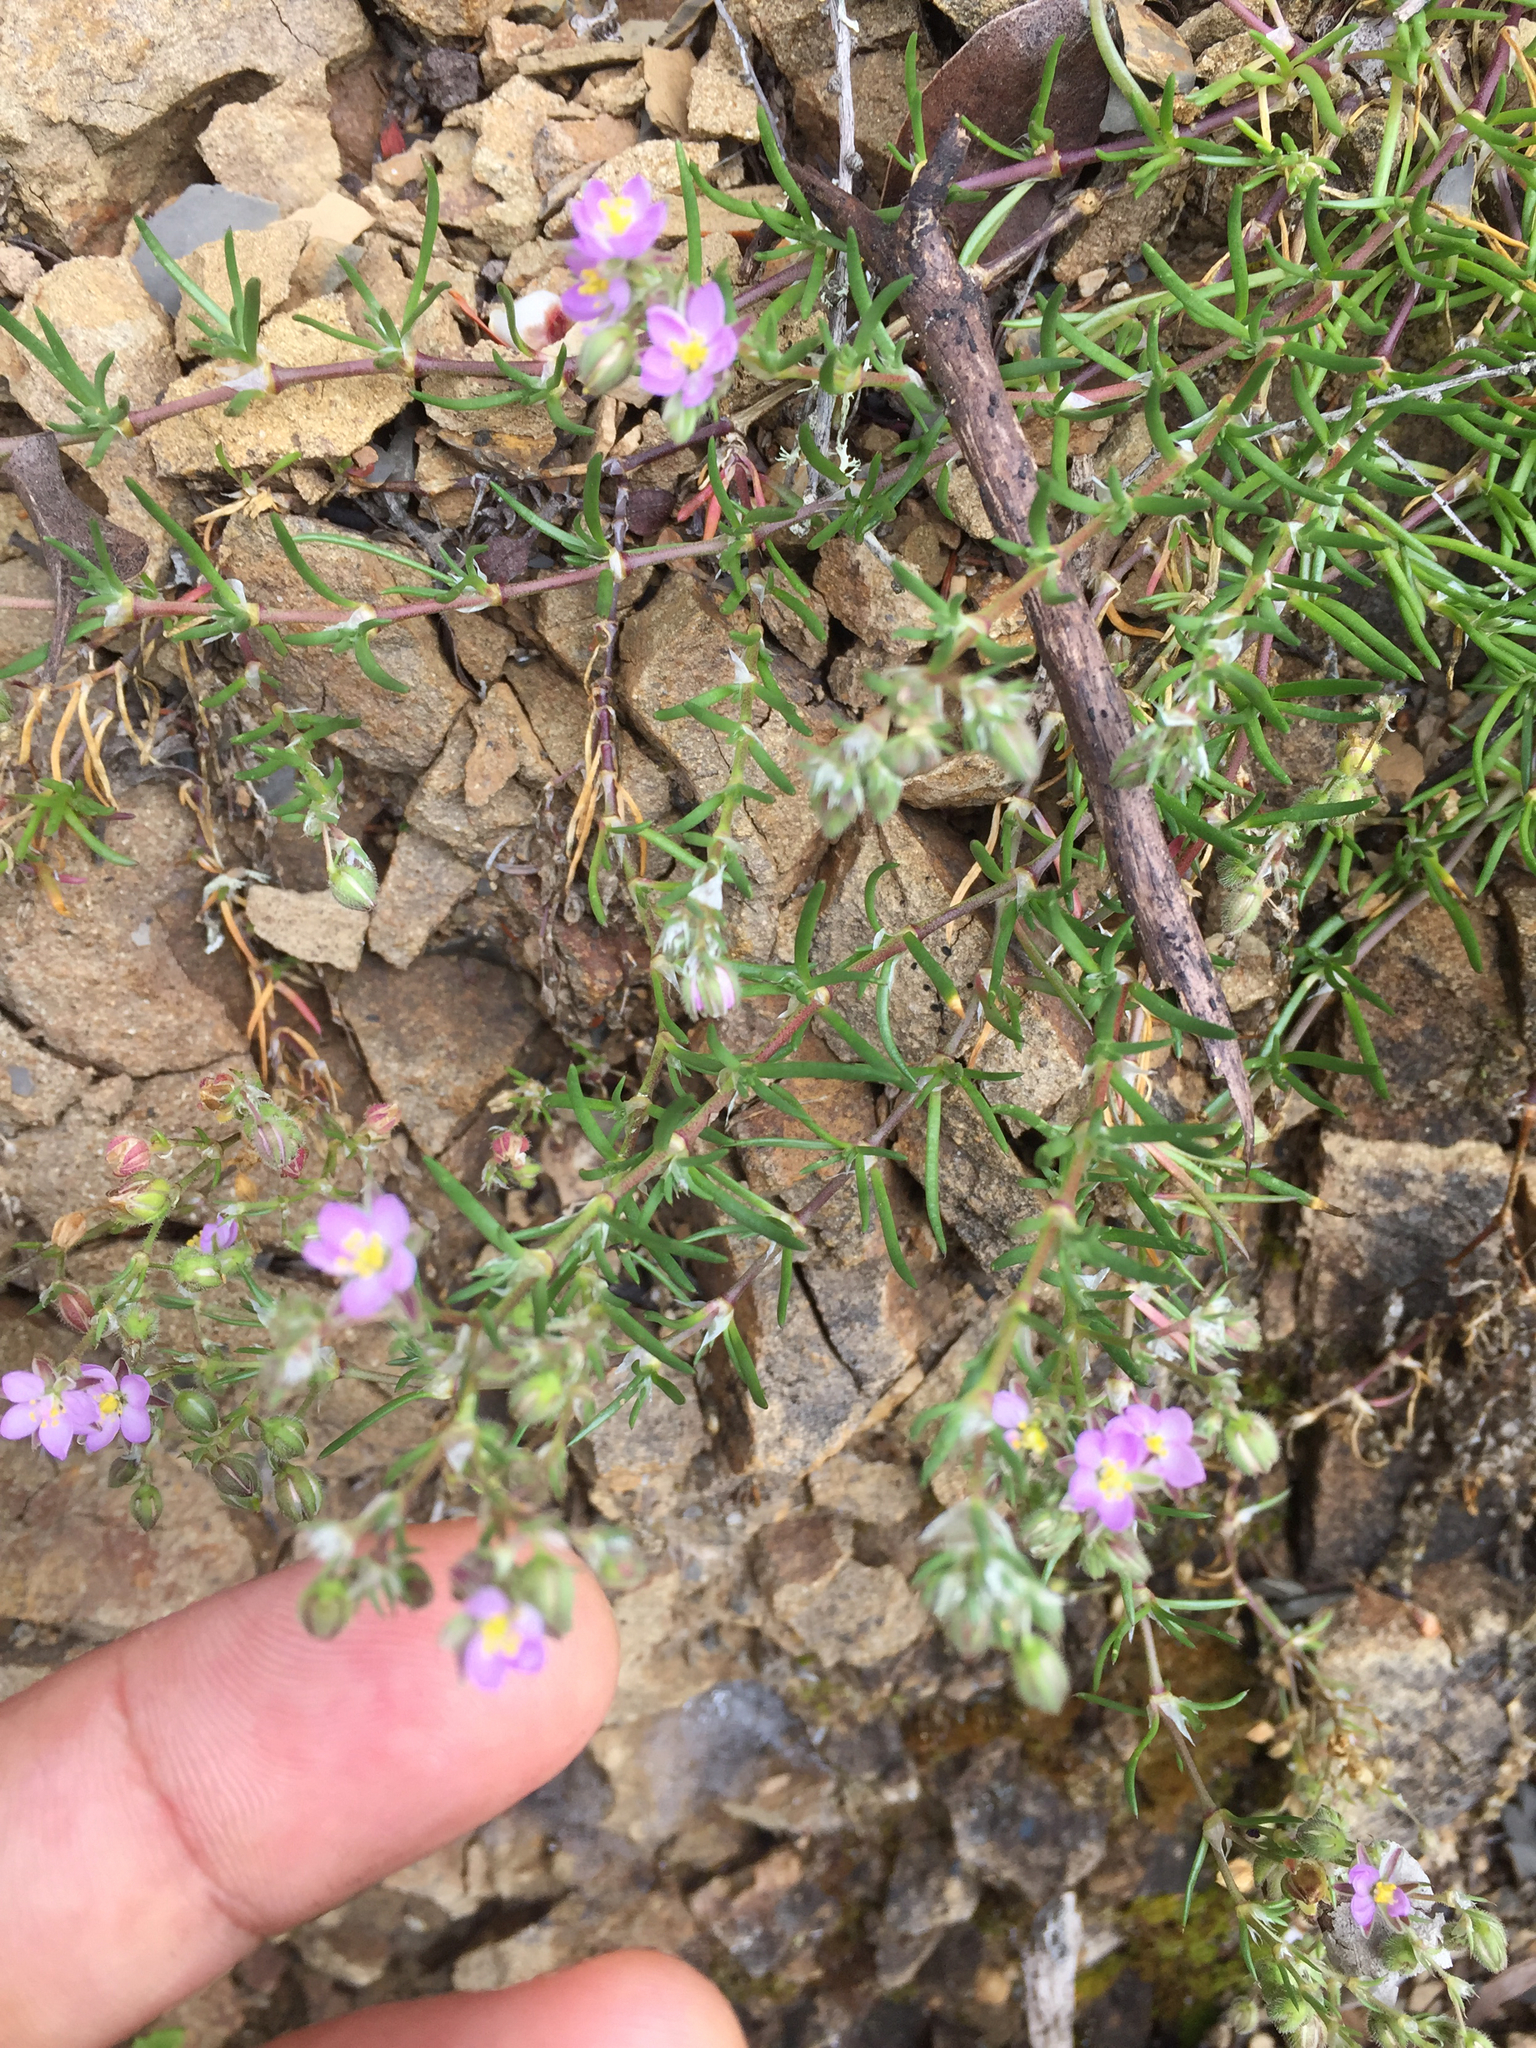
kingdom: Plantae
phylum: Tracheophyta
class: Magnoliopsida
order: Caryophyllales
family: Caryophyllaceae
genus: Spergularia
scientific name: Spergularia rubra
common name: Red sand-spurrey
